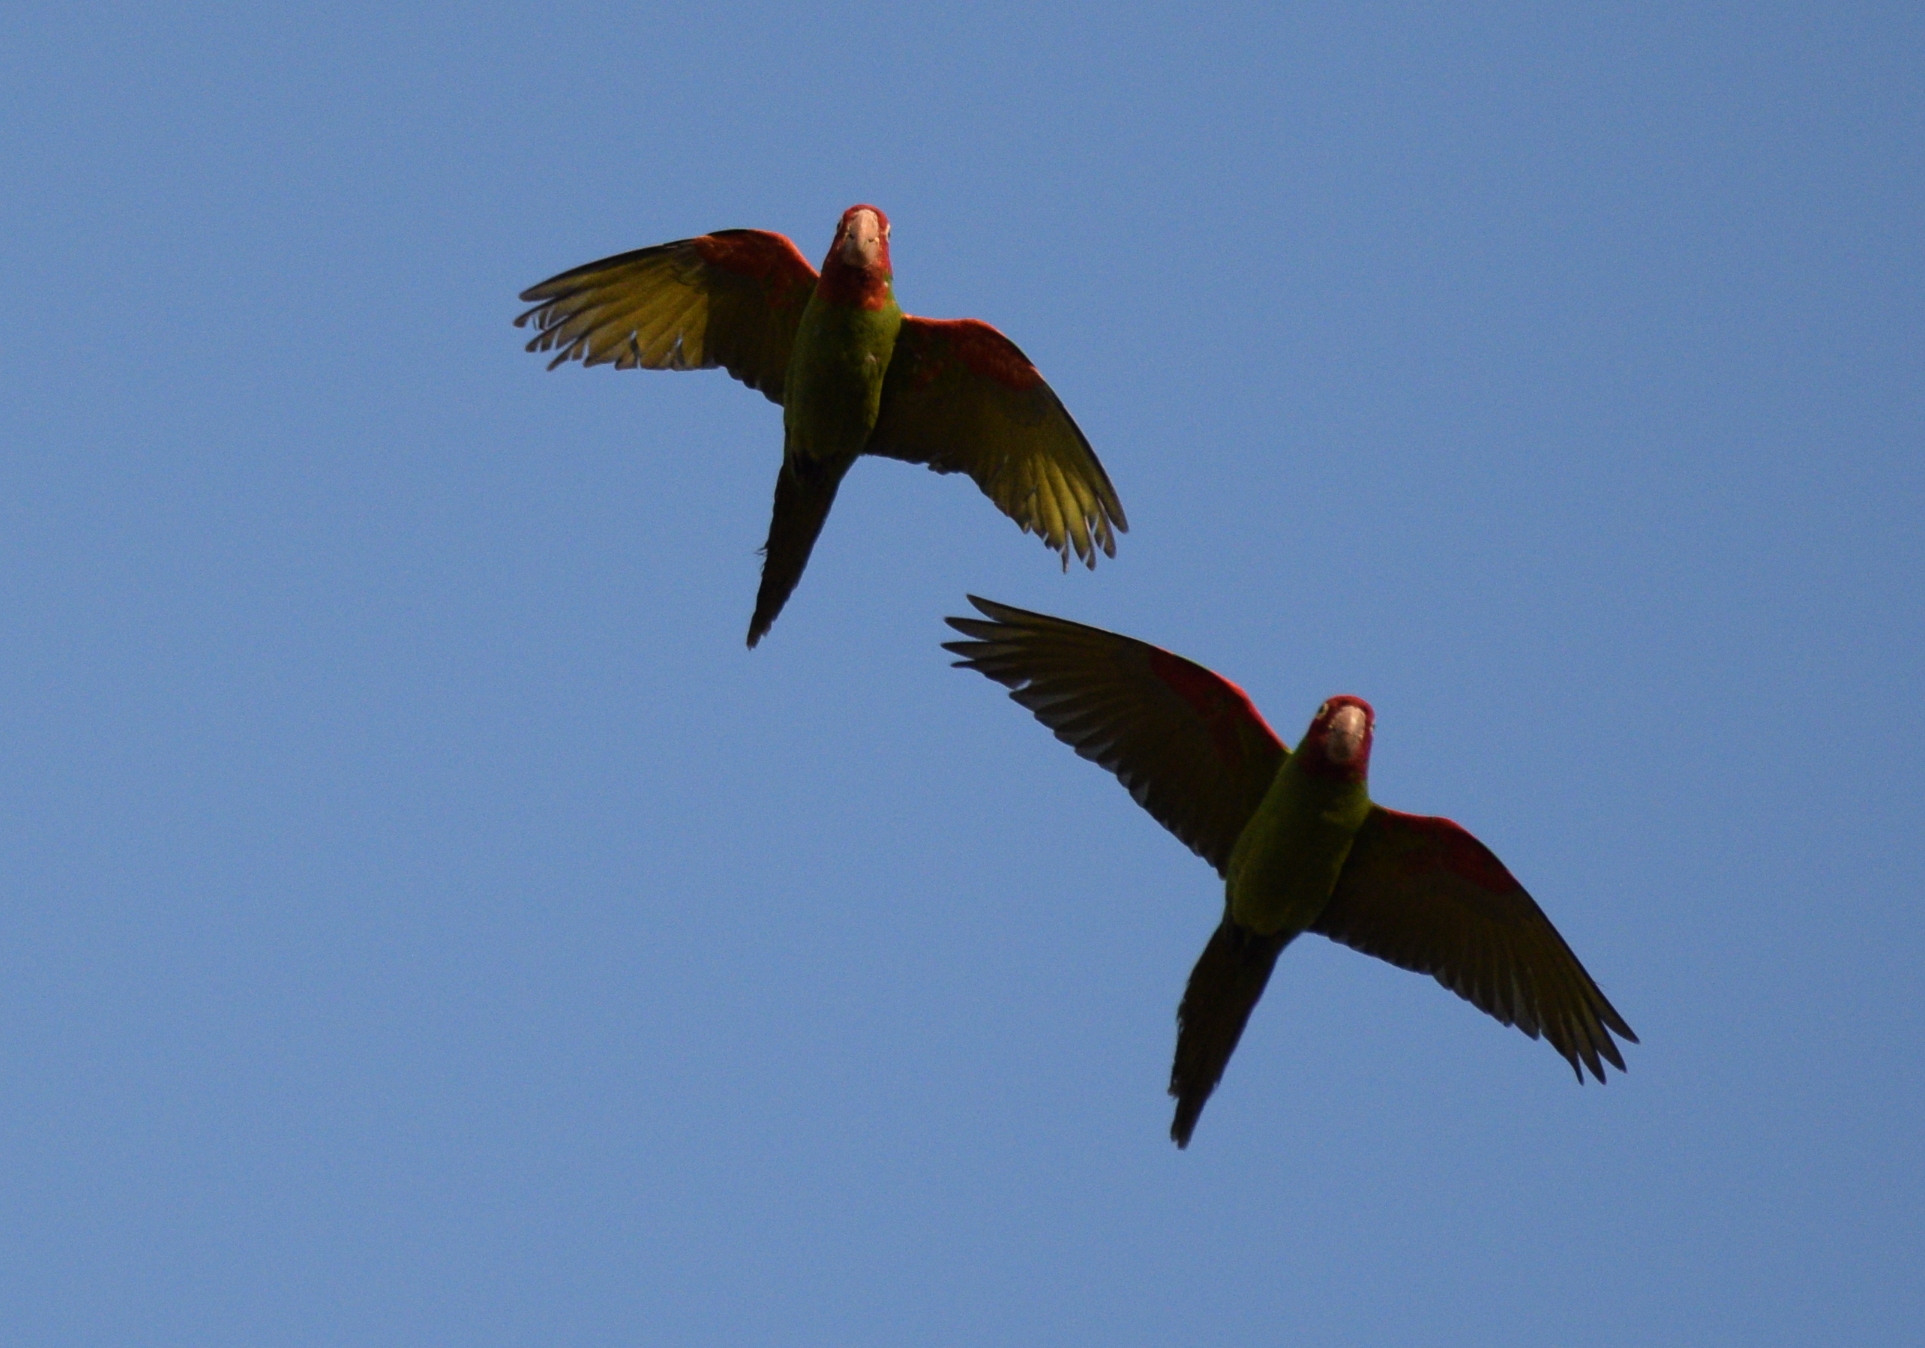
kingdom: Animalia
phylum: Chordata
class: Aves
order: Psittaciformes
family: Psittacidae
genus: Aratinga
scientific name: Aratinga erythrogenys
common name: Red-masked parakeet
